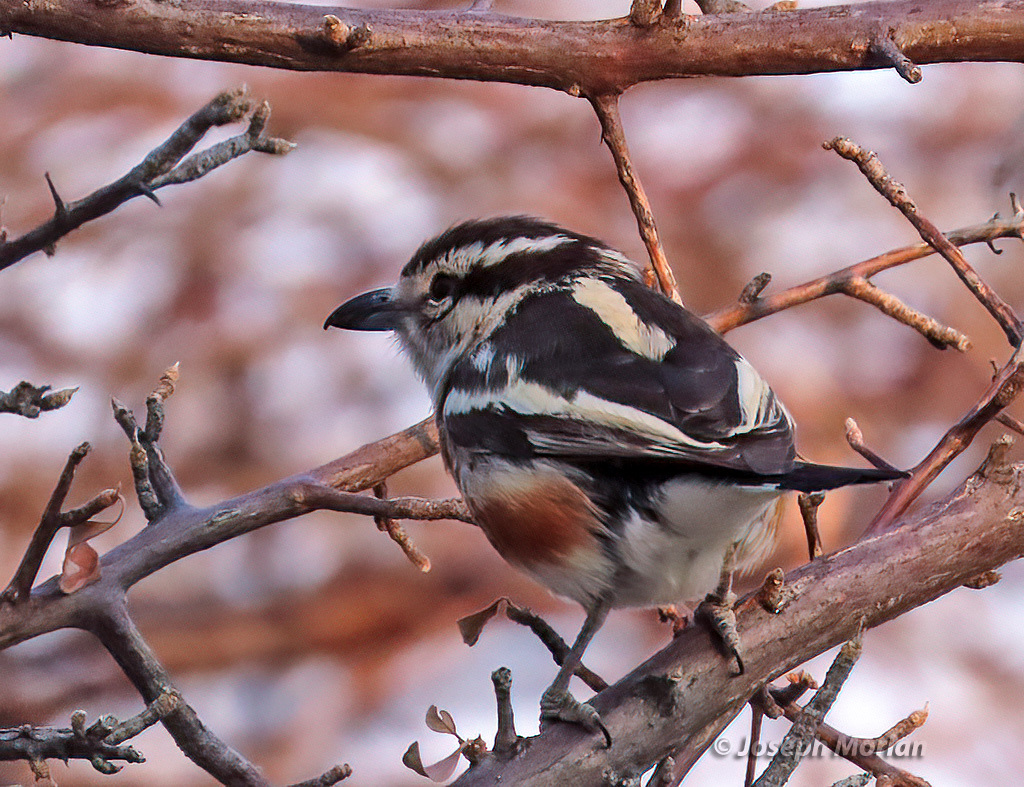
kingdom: Animalia
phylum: Chordata
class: Aves
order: Passeriformes
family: Malaconotidae
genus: Nilaus
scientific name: Nilaus afer
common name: Brubru
